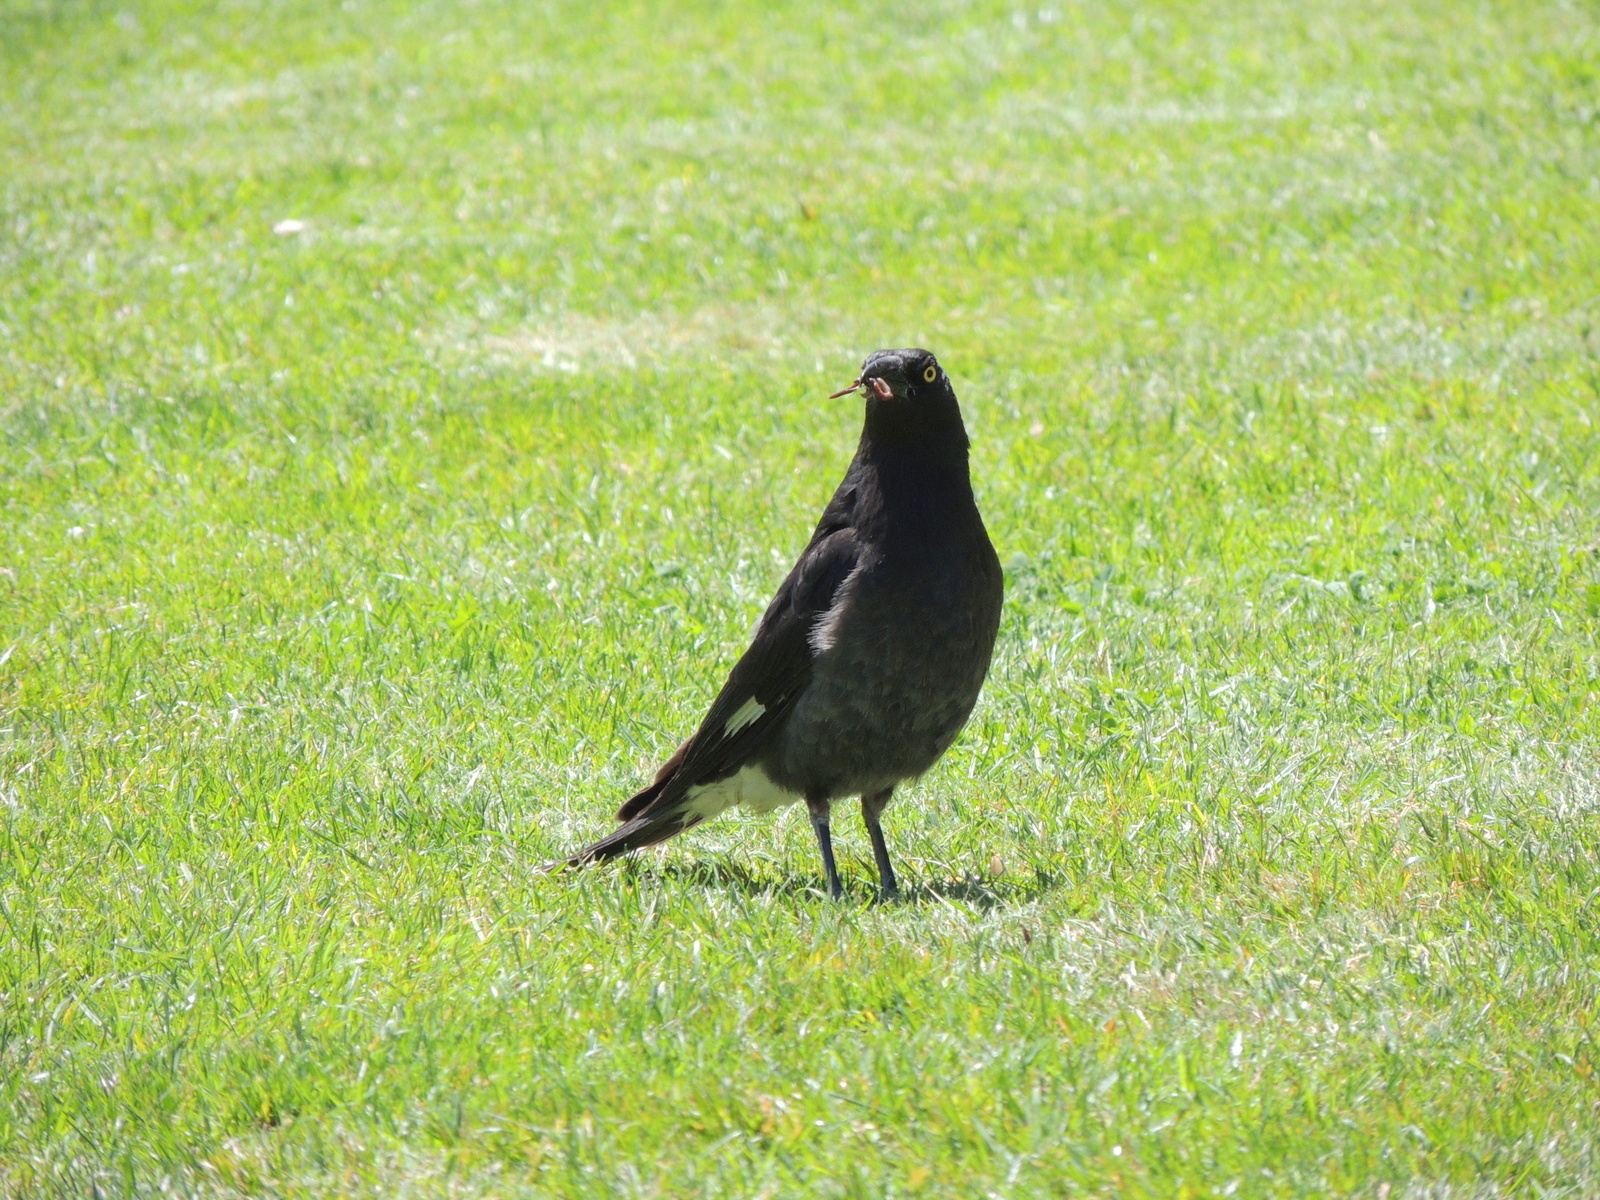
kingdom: Animalia
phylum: Chordata
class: Aves
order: Passeriformes
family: Cracticidae
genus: Strepera
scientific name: Strepera graculina
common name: Pied currawong
